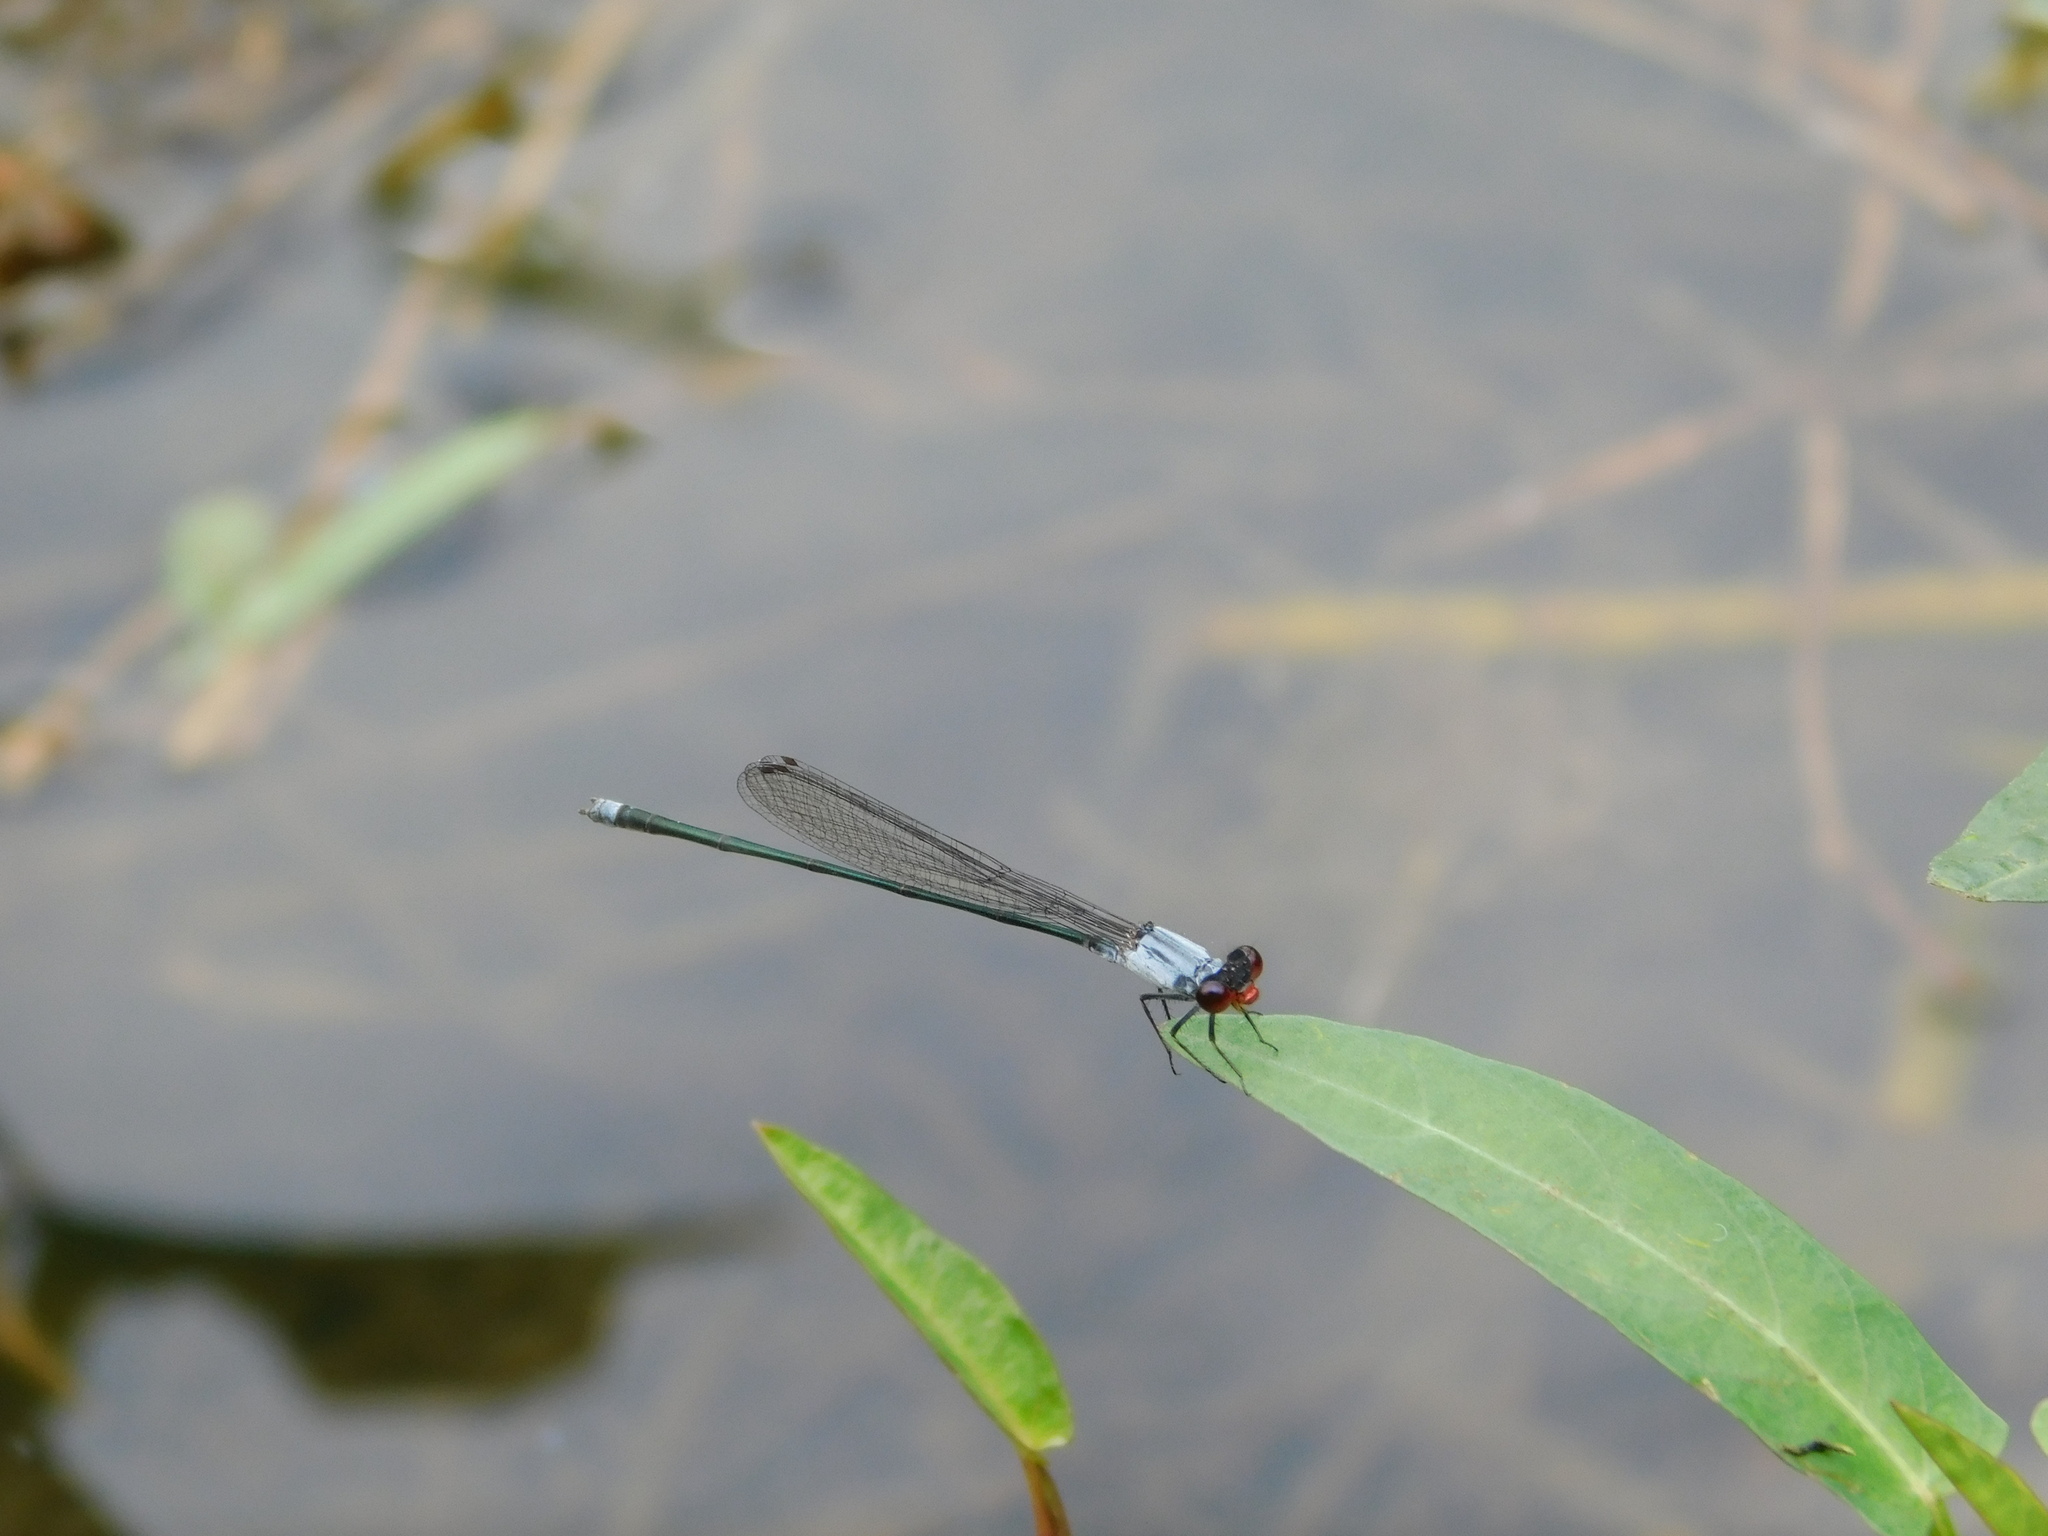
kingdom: Animalia
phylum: Arthropoda
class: Insecta
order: Odonata
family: Coenagrionidae
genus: Pseudagrion
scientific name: Pseudagrion pruinosum
